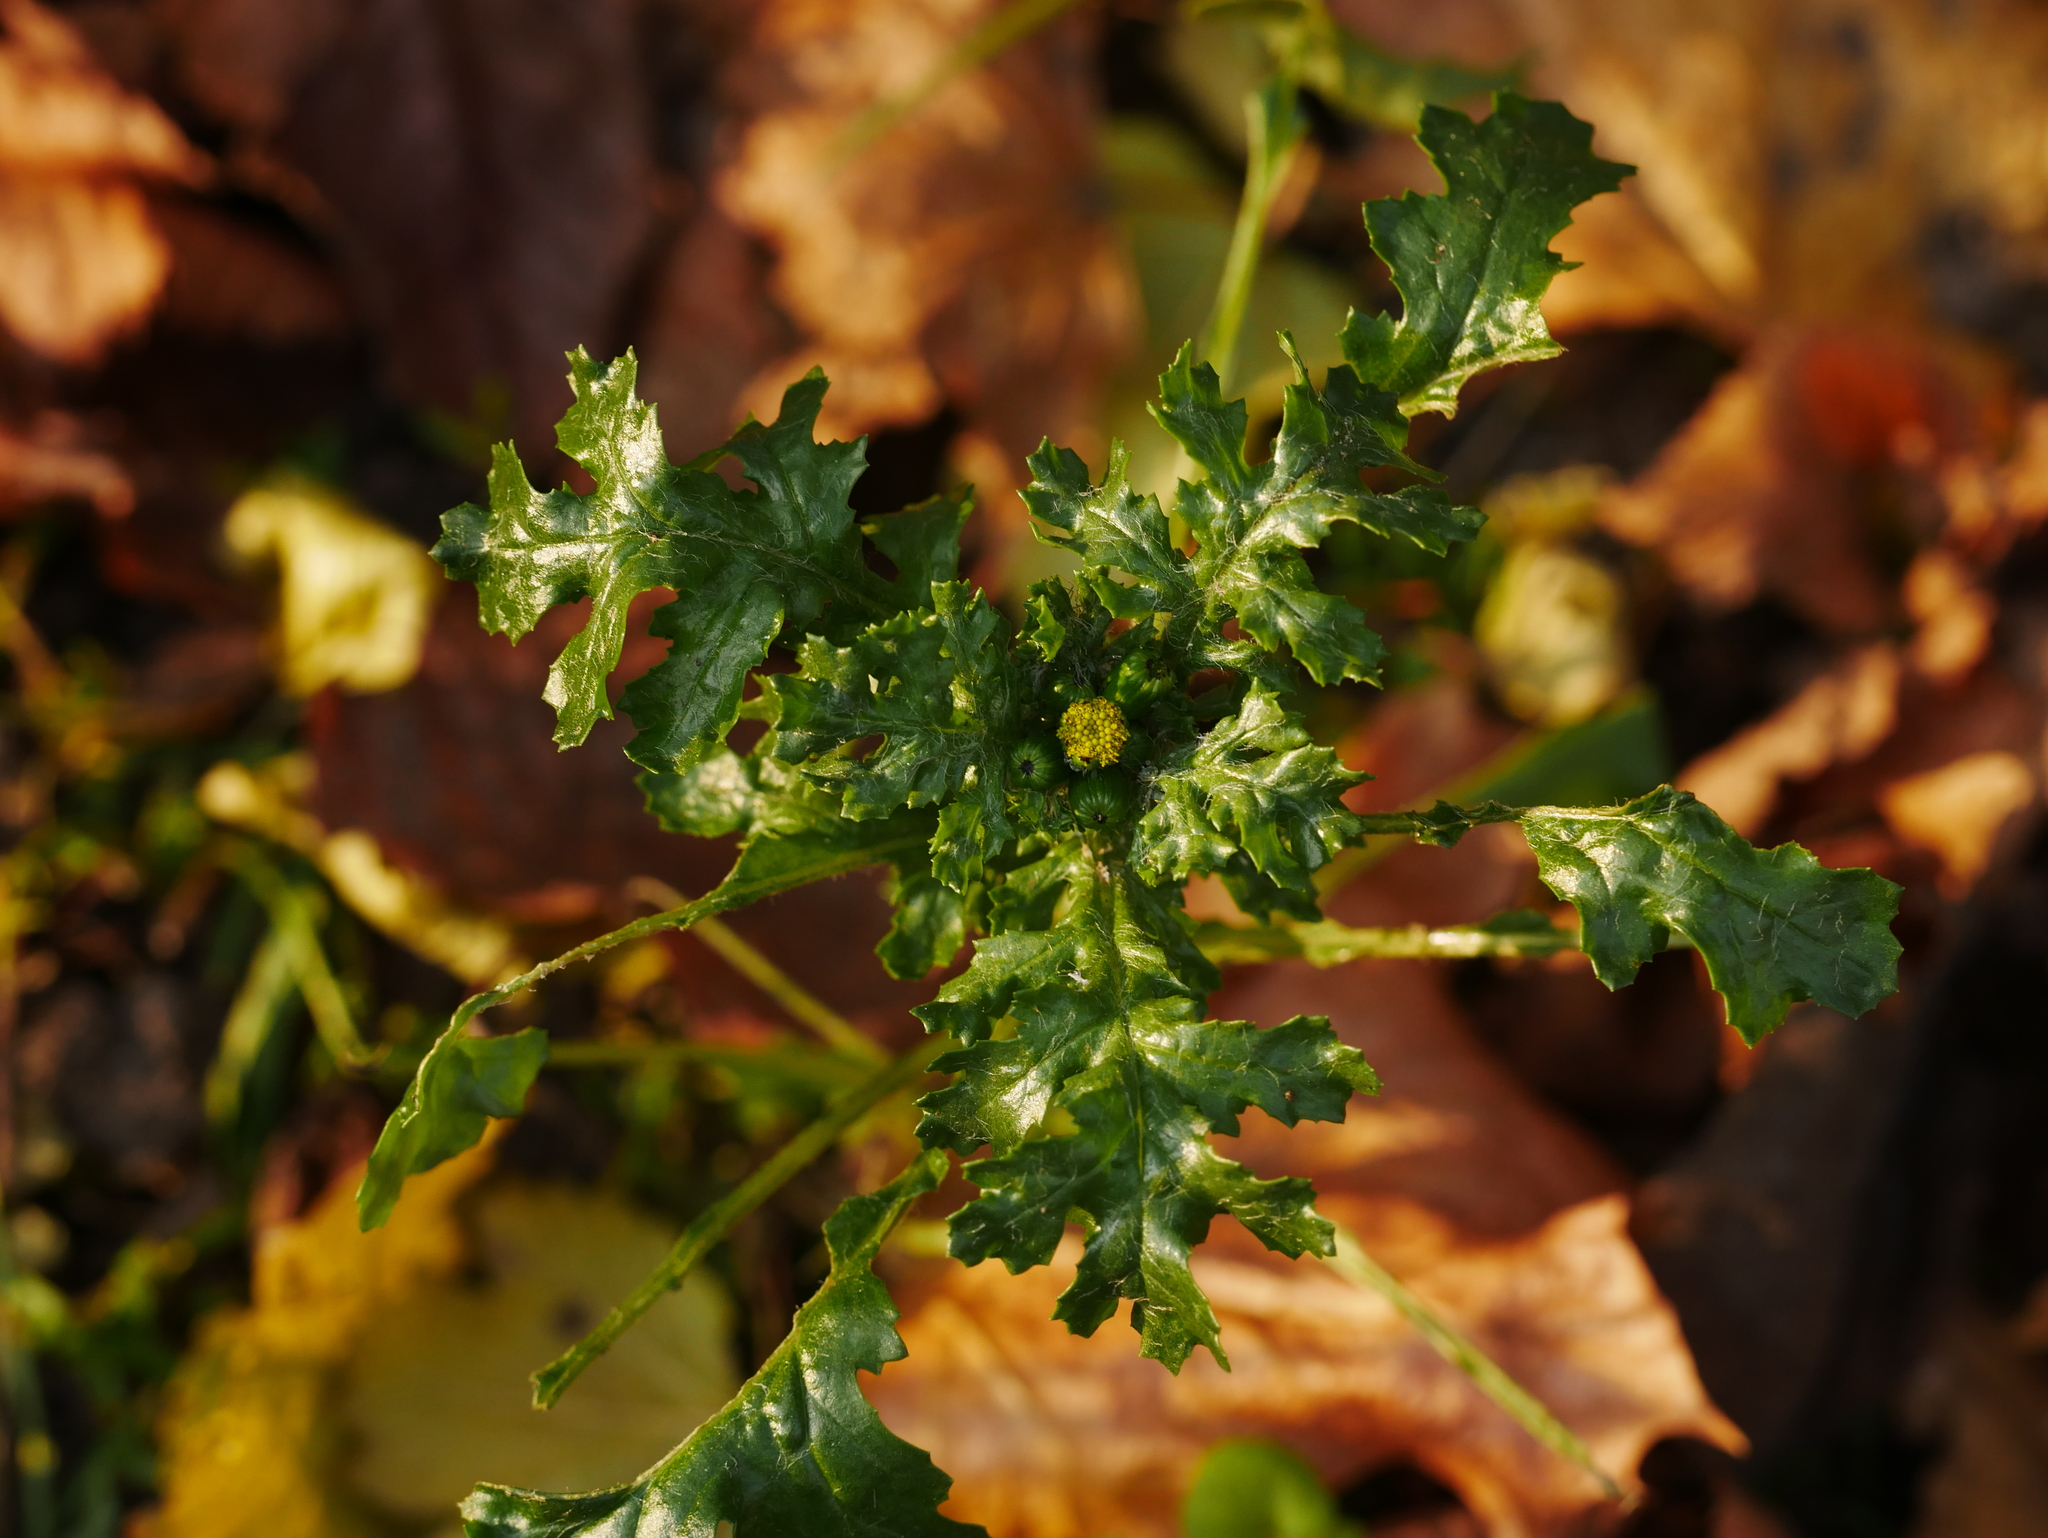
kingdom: Plantae
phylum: Tracheophyta
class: Magnoliopsida
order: Asterales
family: Asteraceae
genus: Senecio
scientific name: Senecio vulgaris
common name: Old-man-in-the-spring
